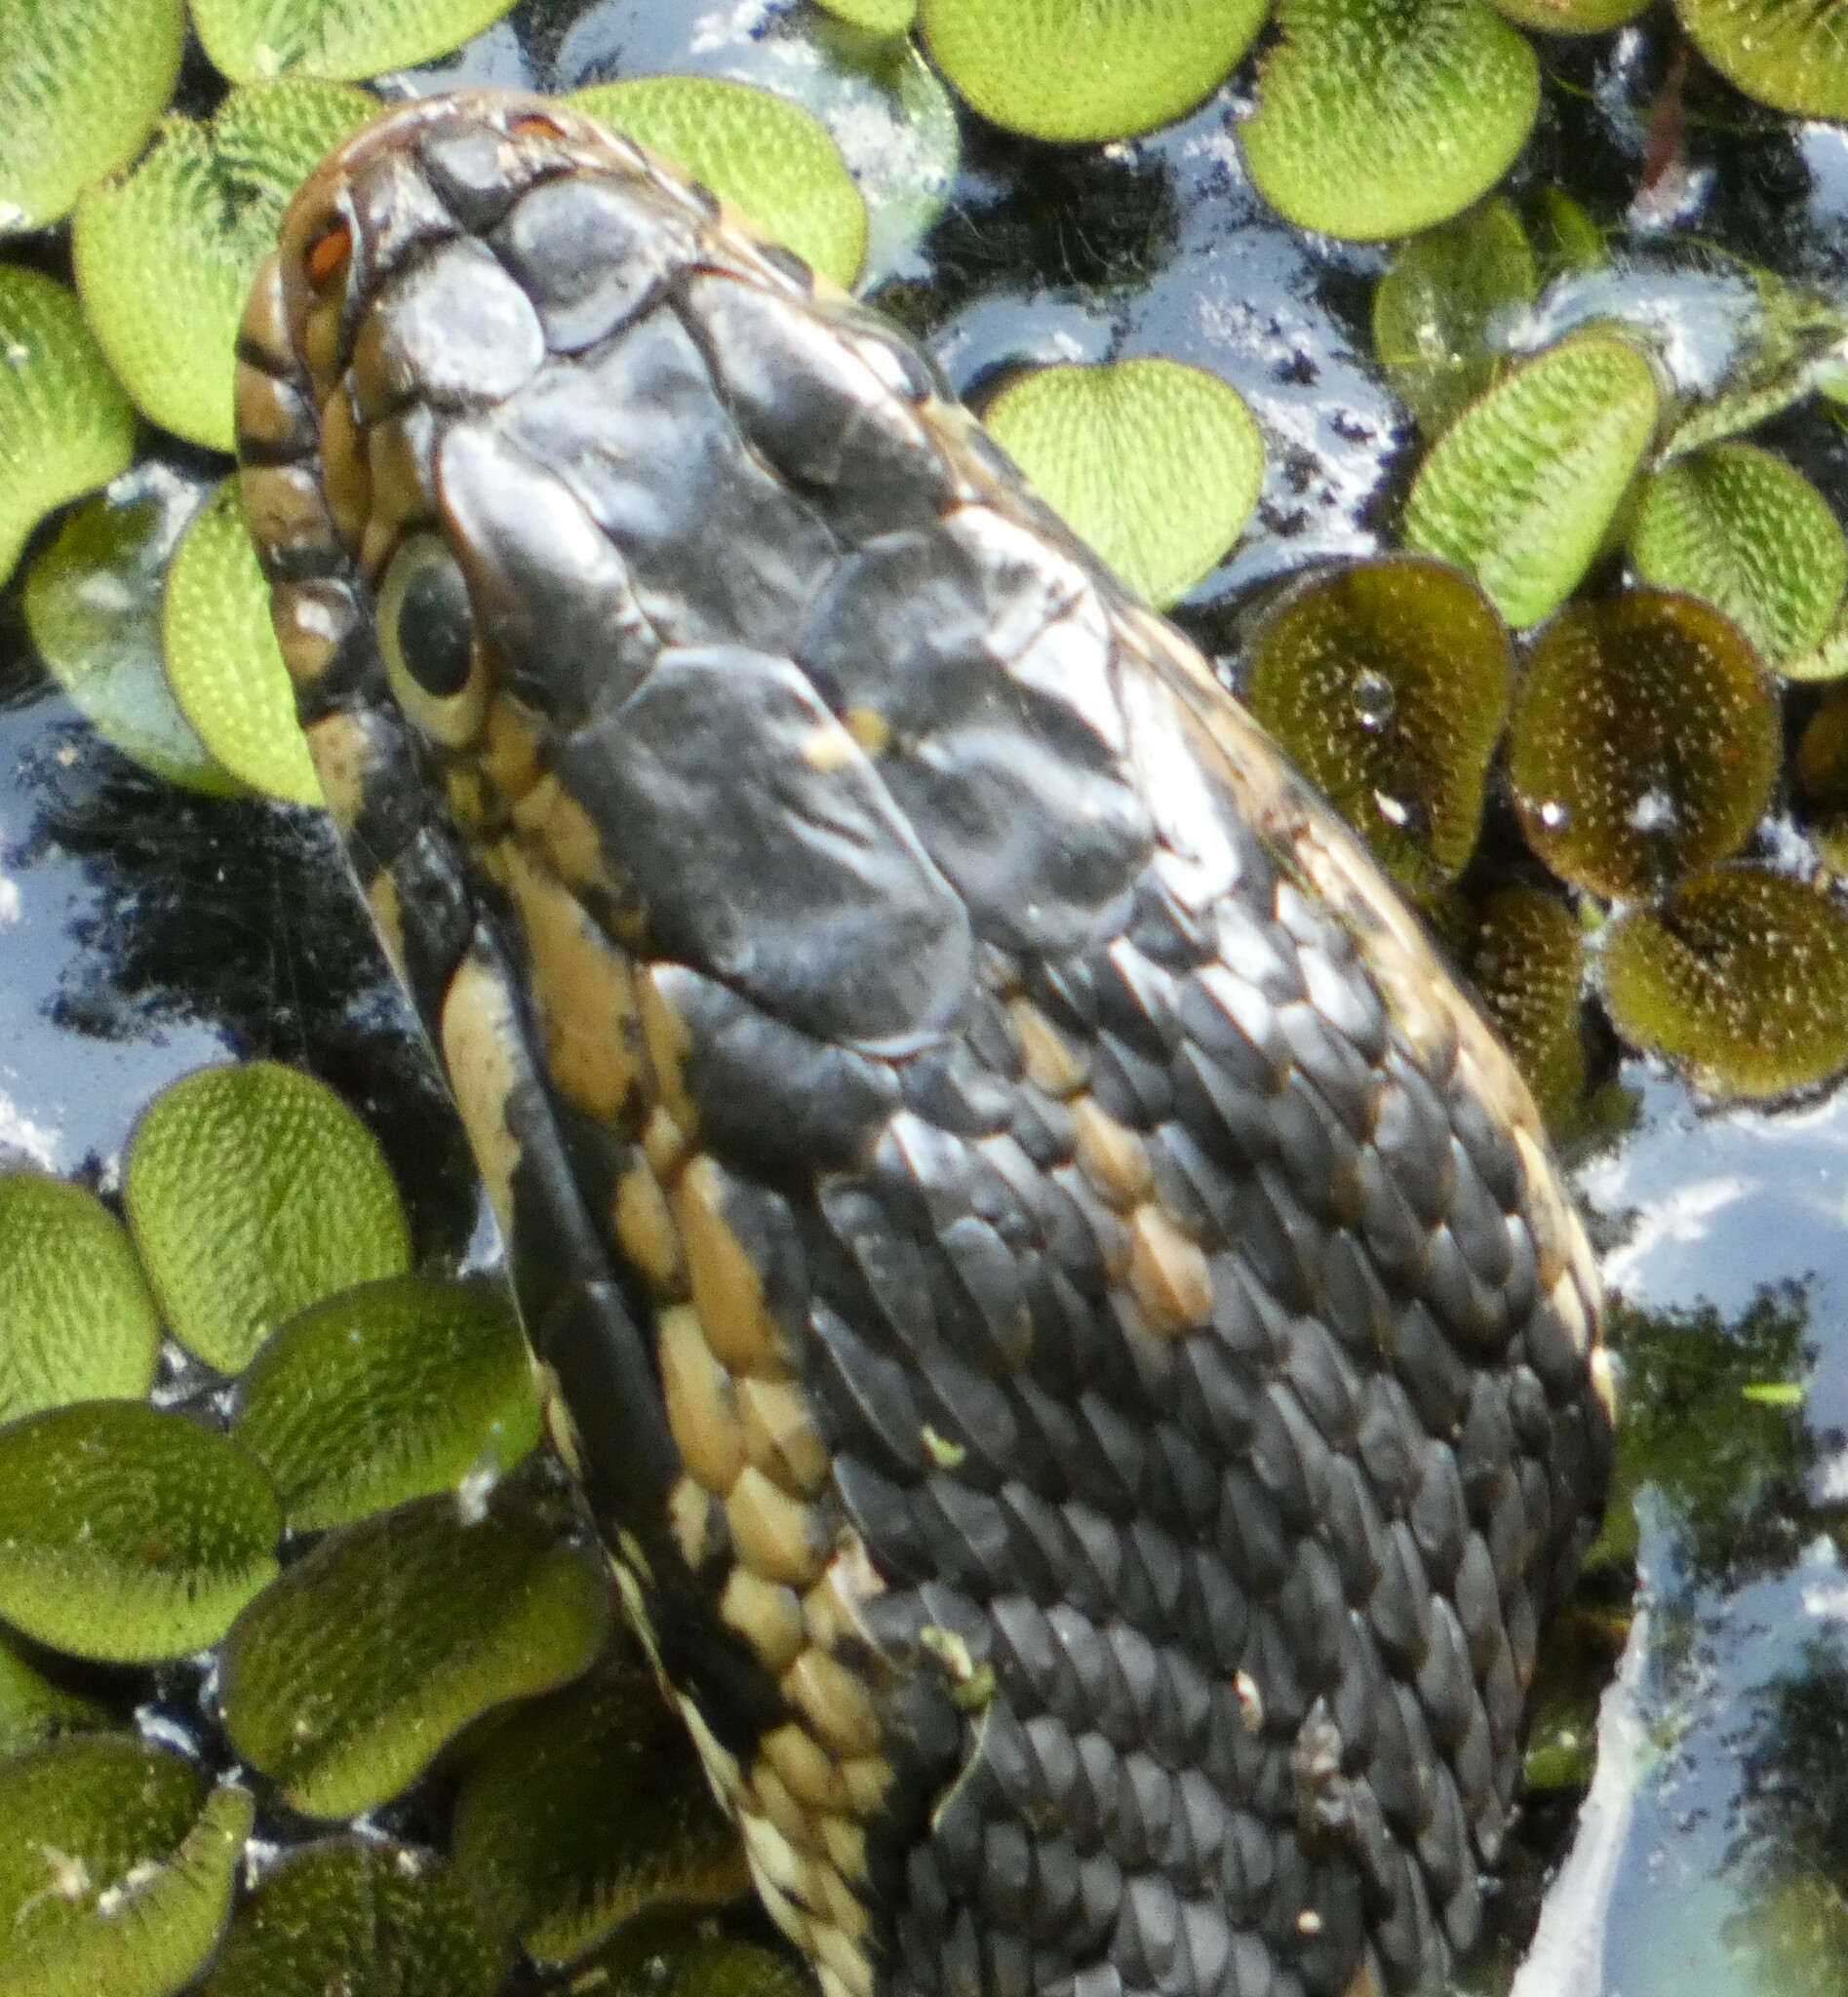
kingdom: Animalia
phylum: Chordata
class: Squamata
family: Colubridae
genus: Nerodia
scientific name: Nerodia fasciata
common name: Southern water snake
